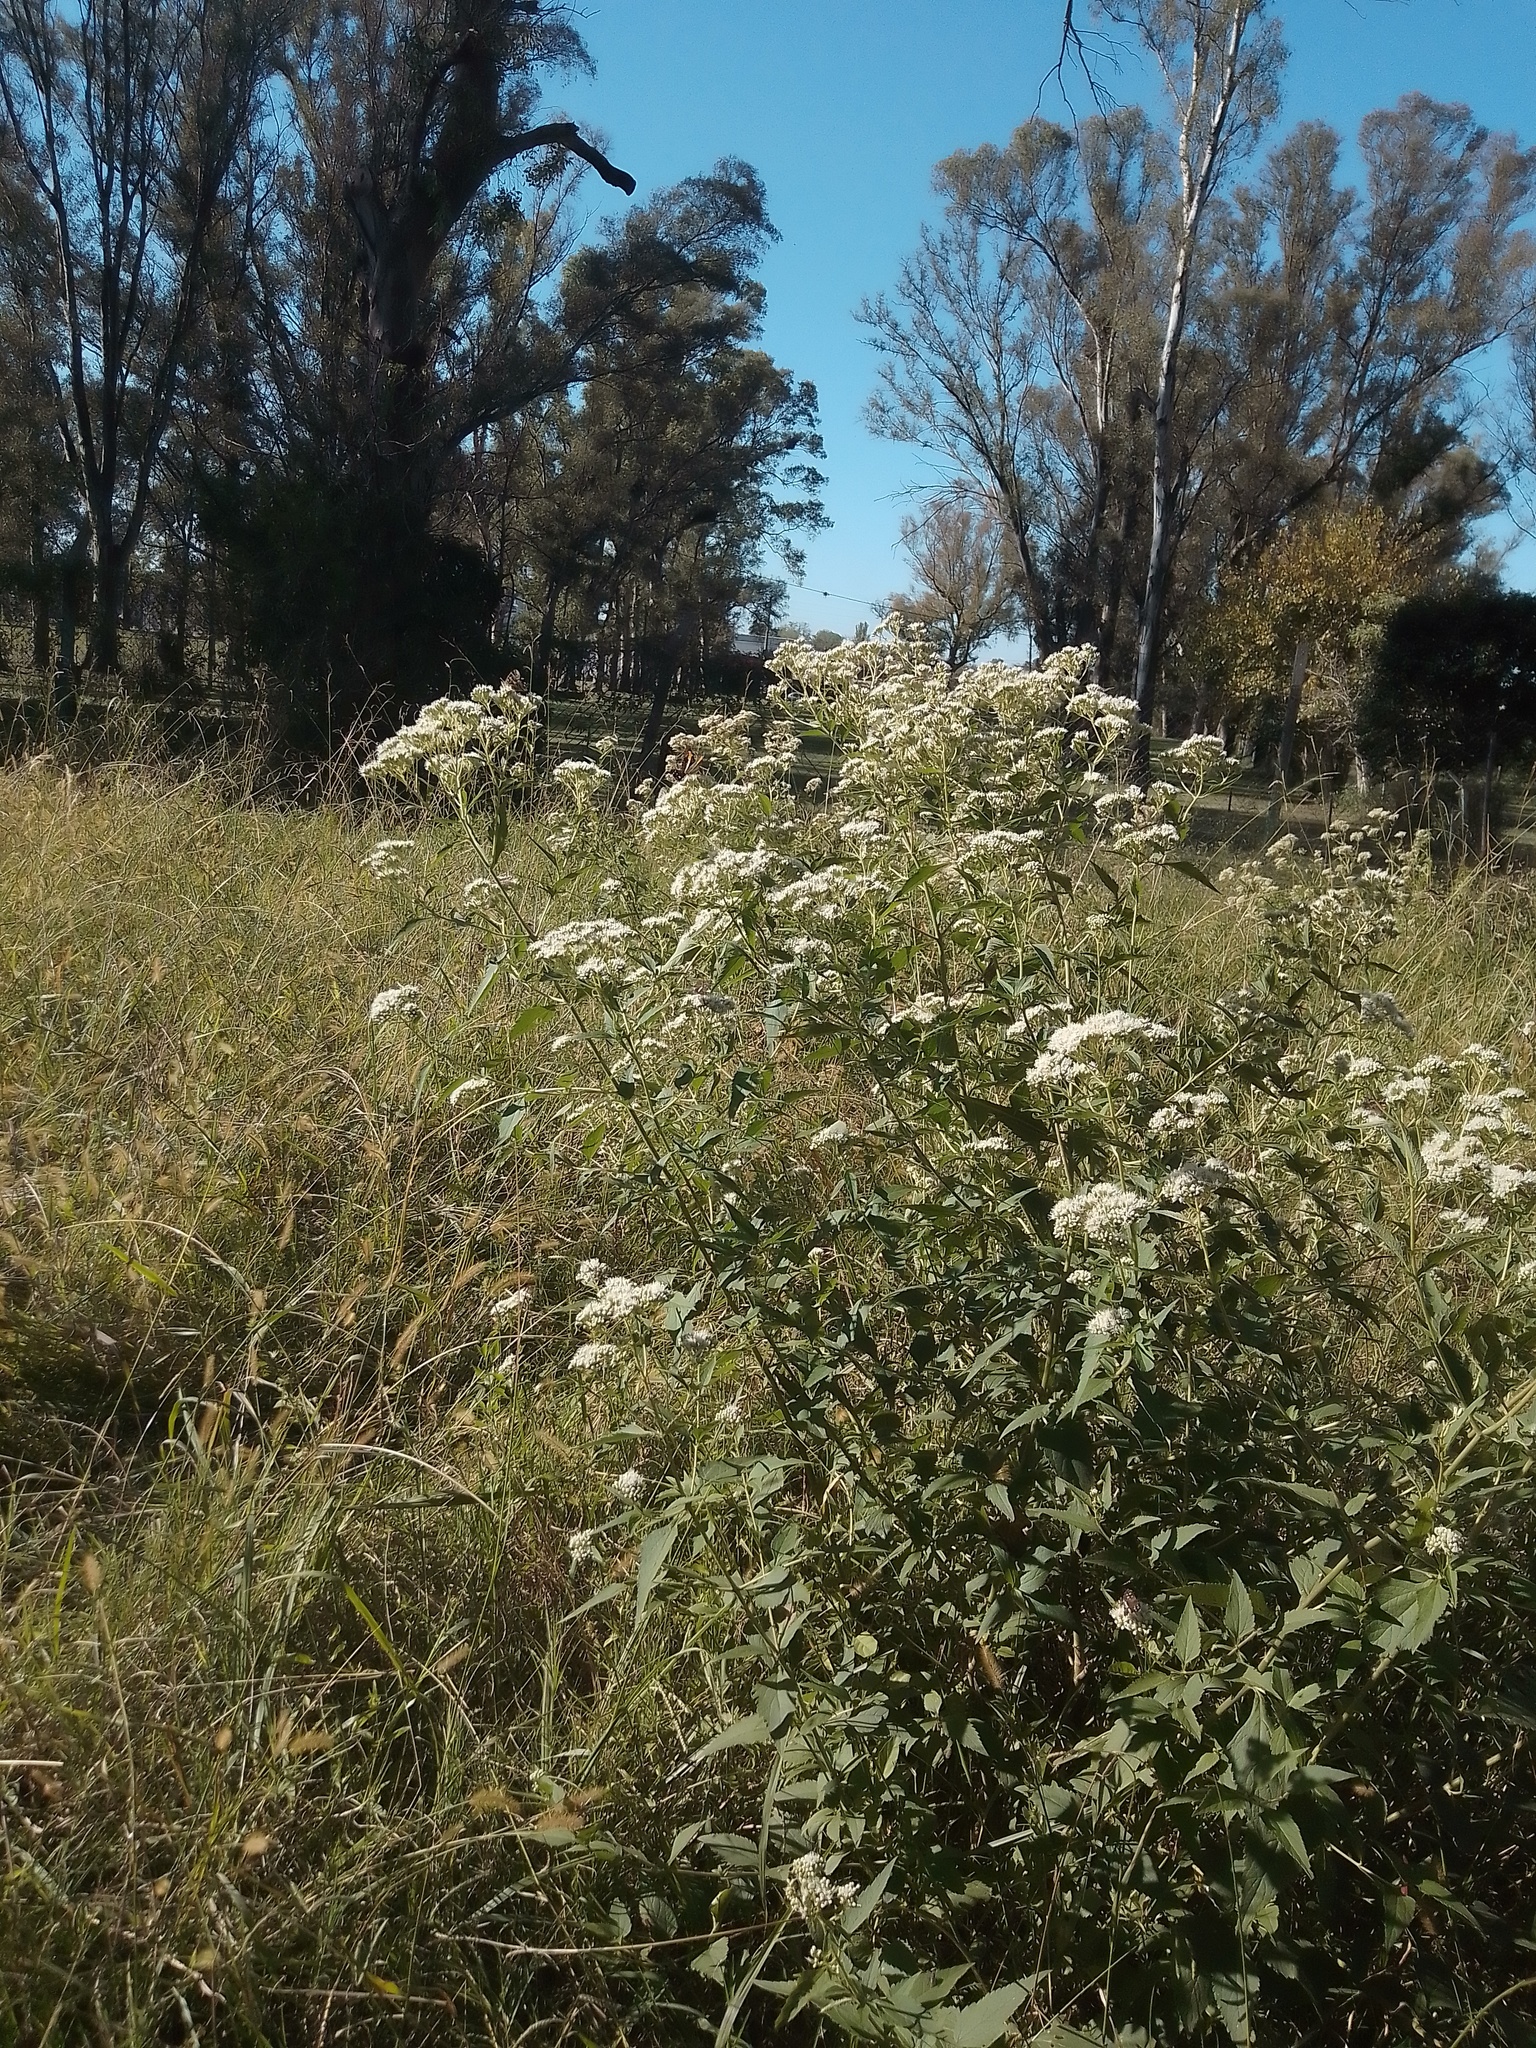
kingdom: Plantae
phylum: Tracheophyta
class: Magnoliopsida
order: Asterales
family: Asteraceae
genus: Austroeupatorium
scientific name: Austroeupatorium inulifolium
